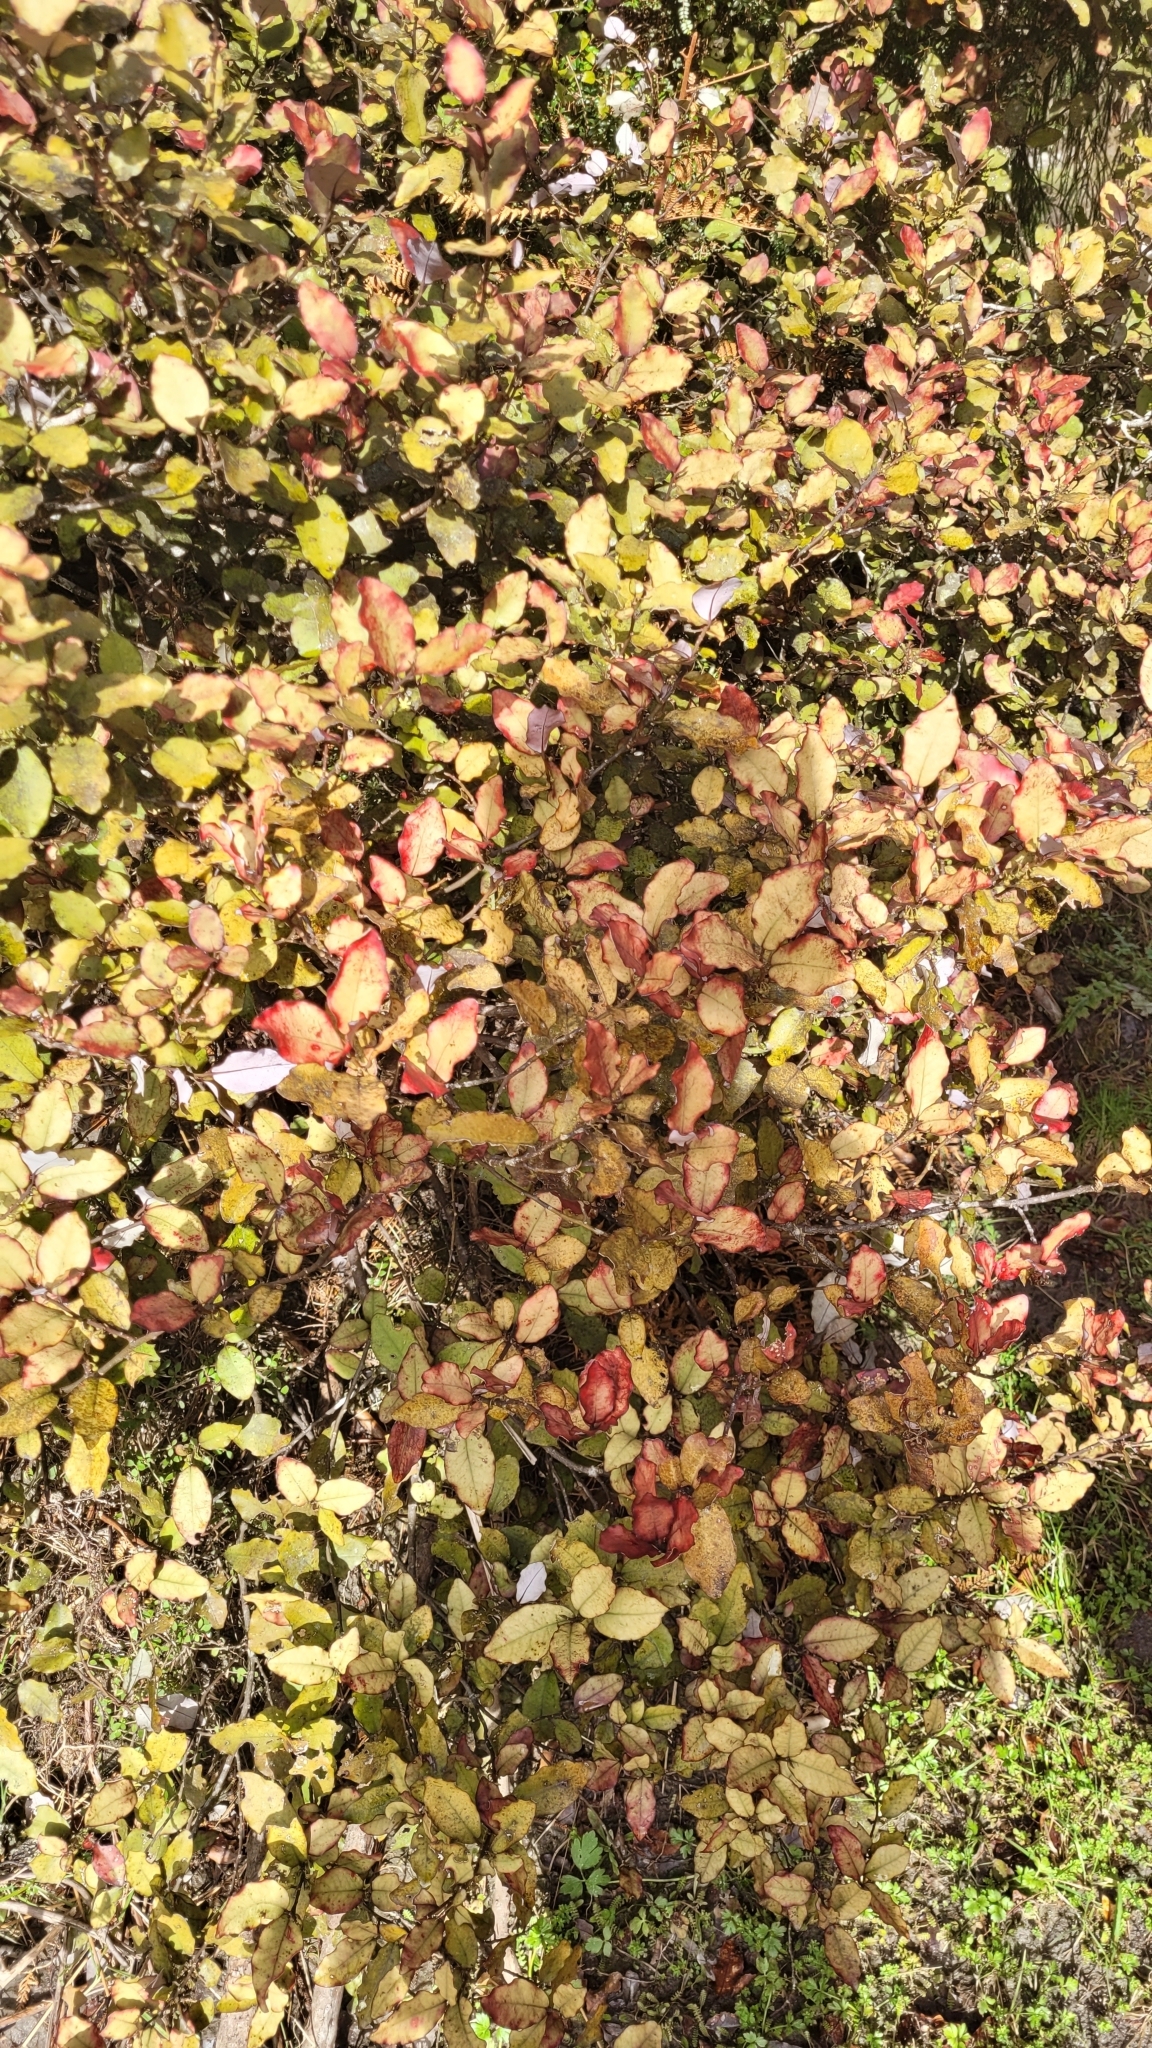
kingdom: Plantae
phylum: Tracheophyta
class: Magnoliopsida
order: Canellales
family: Winteraceae
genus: Pseudowintera
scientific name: Pseudowintera colorata
